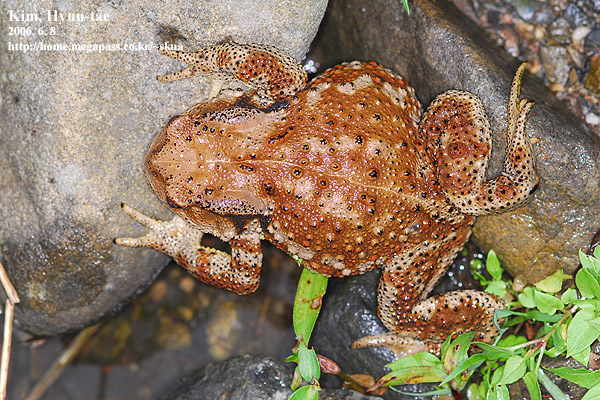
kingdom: Animalia
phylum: Chordata
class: Amphibia
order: Anura
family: Bufonidae
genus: Bufo
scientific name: Bufo gargarizans
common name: Asiatic toad
